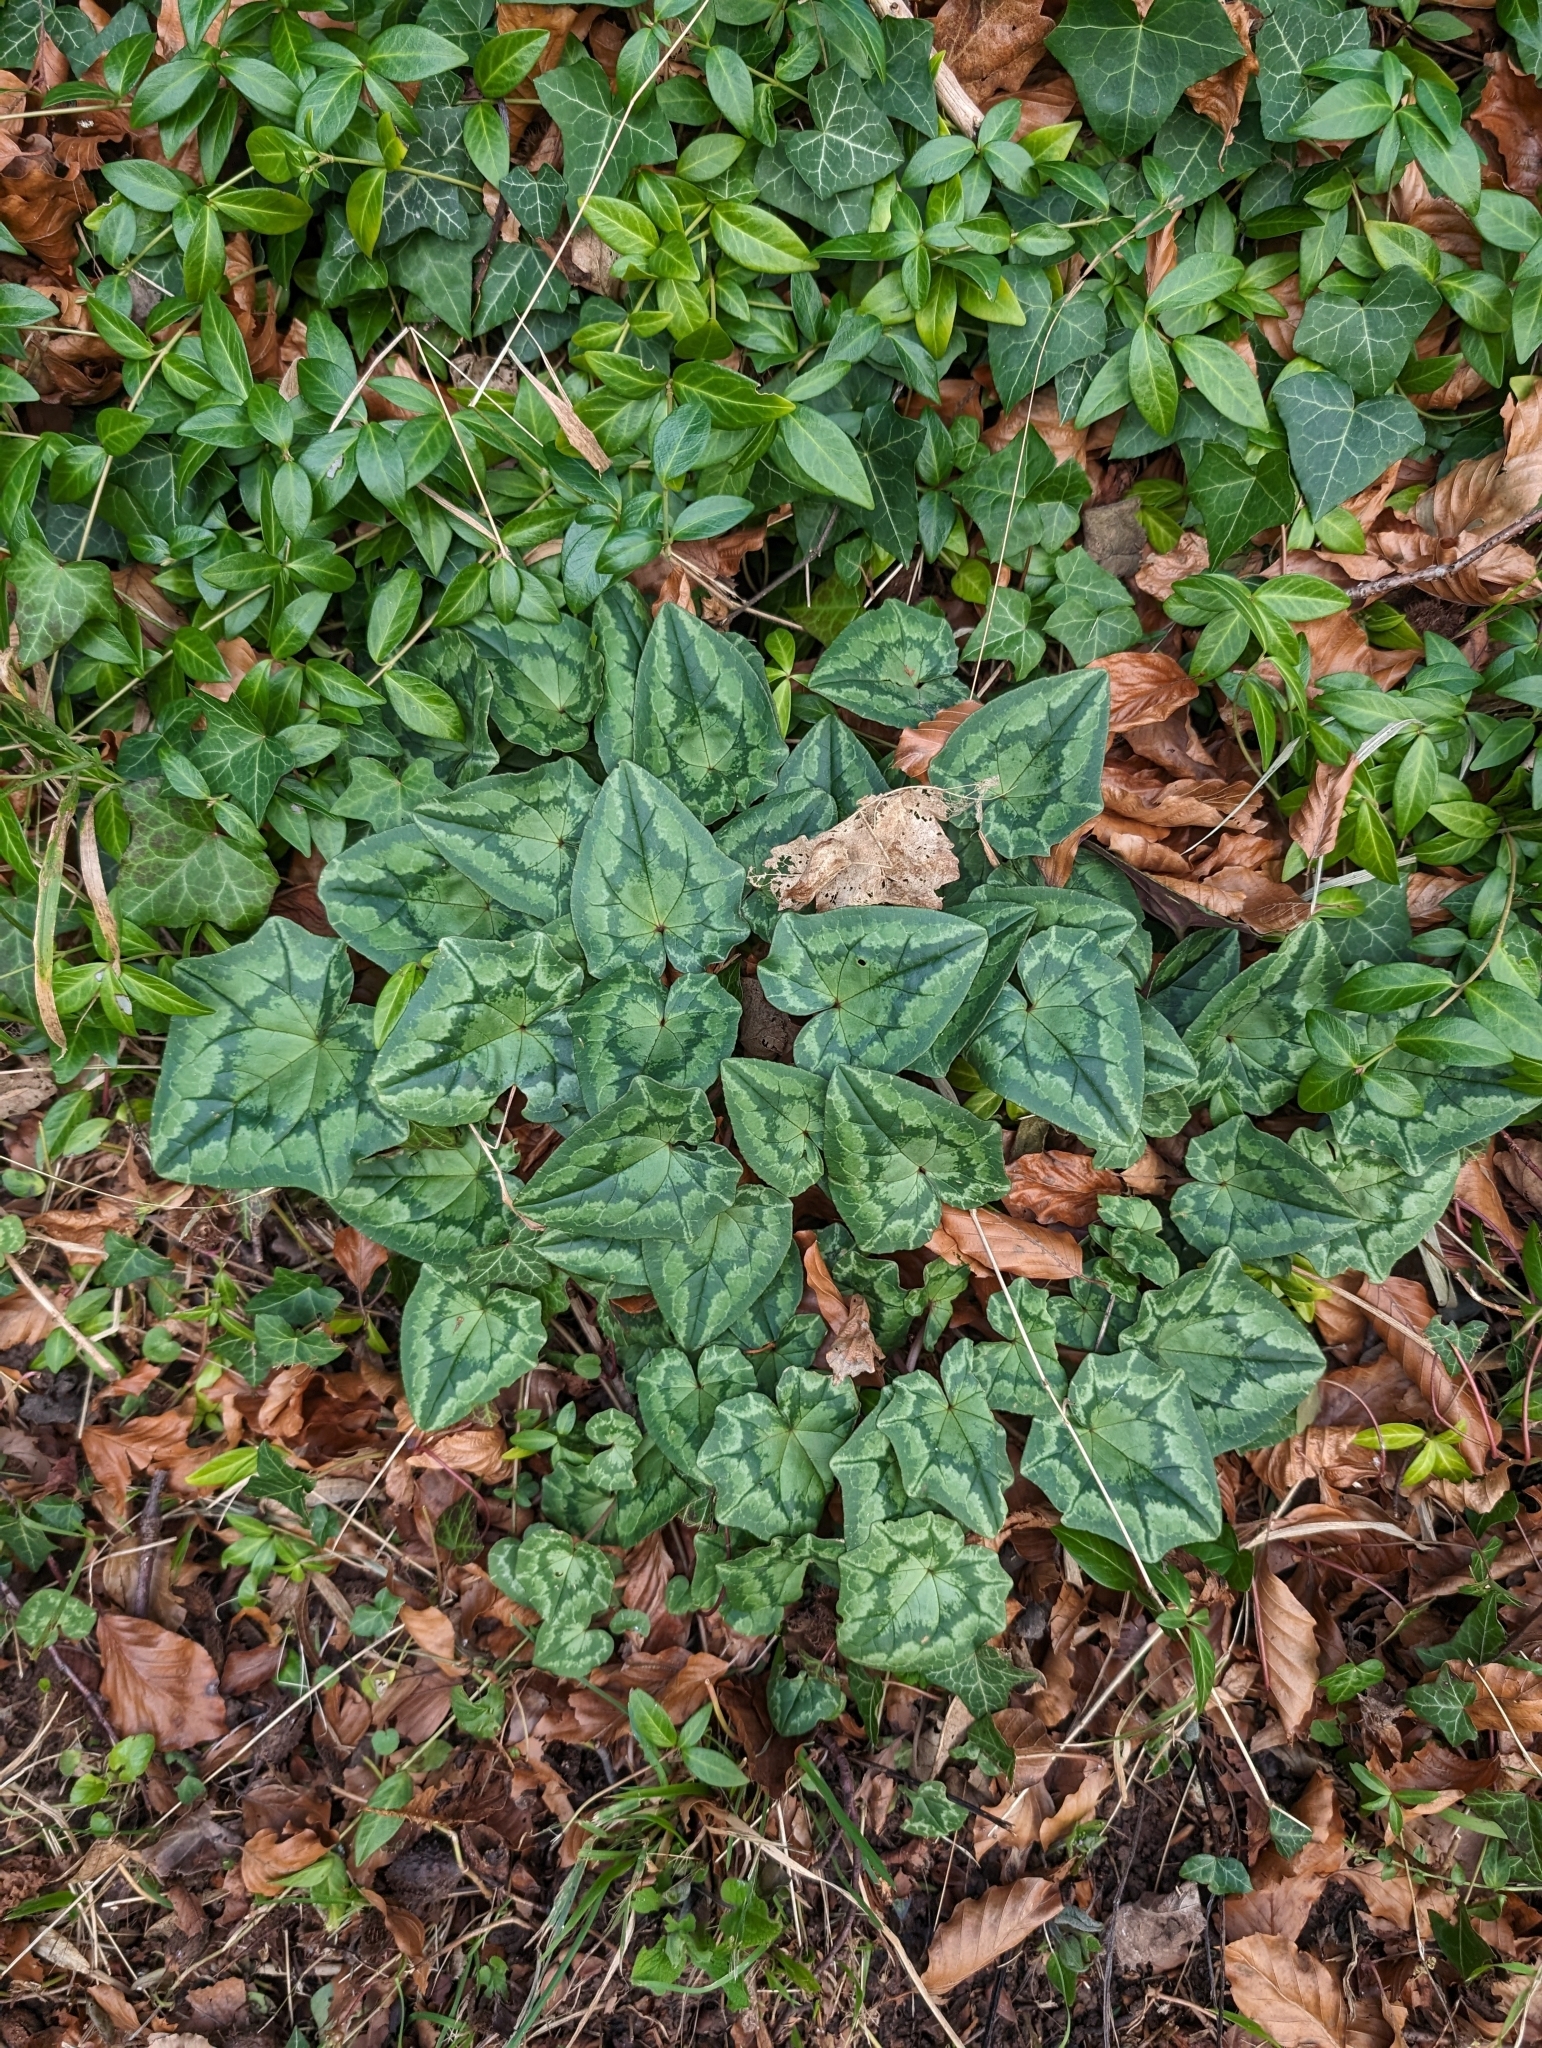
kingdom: Plantae
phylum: Tracheophyta
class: Magnoliopsida
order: Ericales
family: Primulaceae
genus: Cyclamen
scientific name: Cyclamen hederifolium
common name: Sowbread
